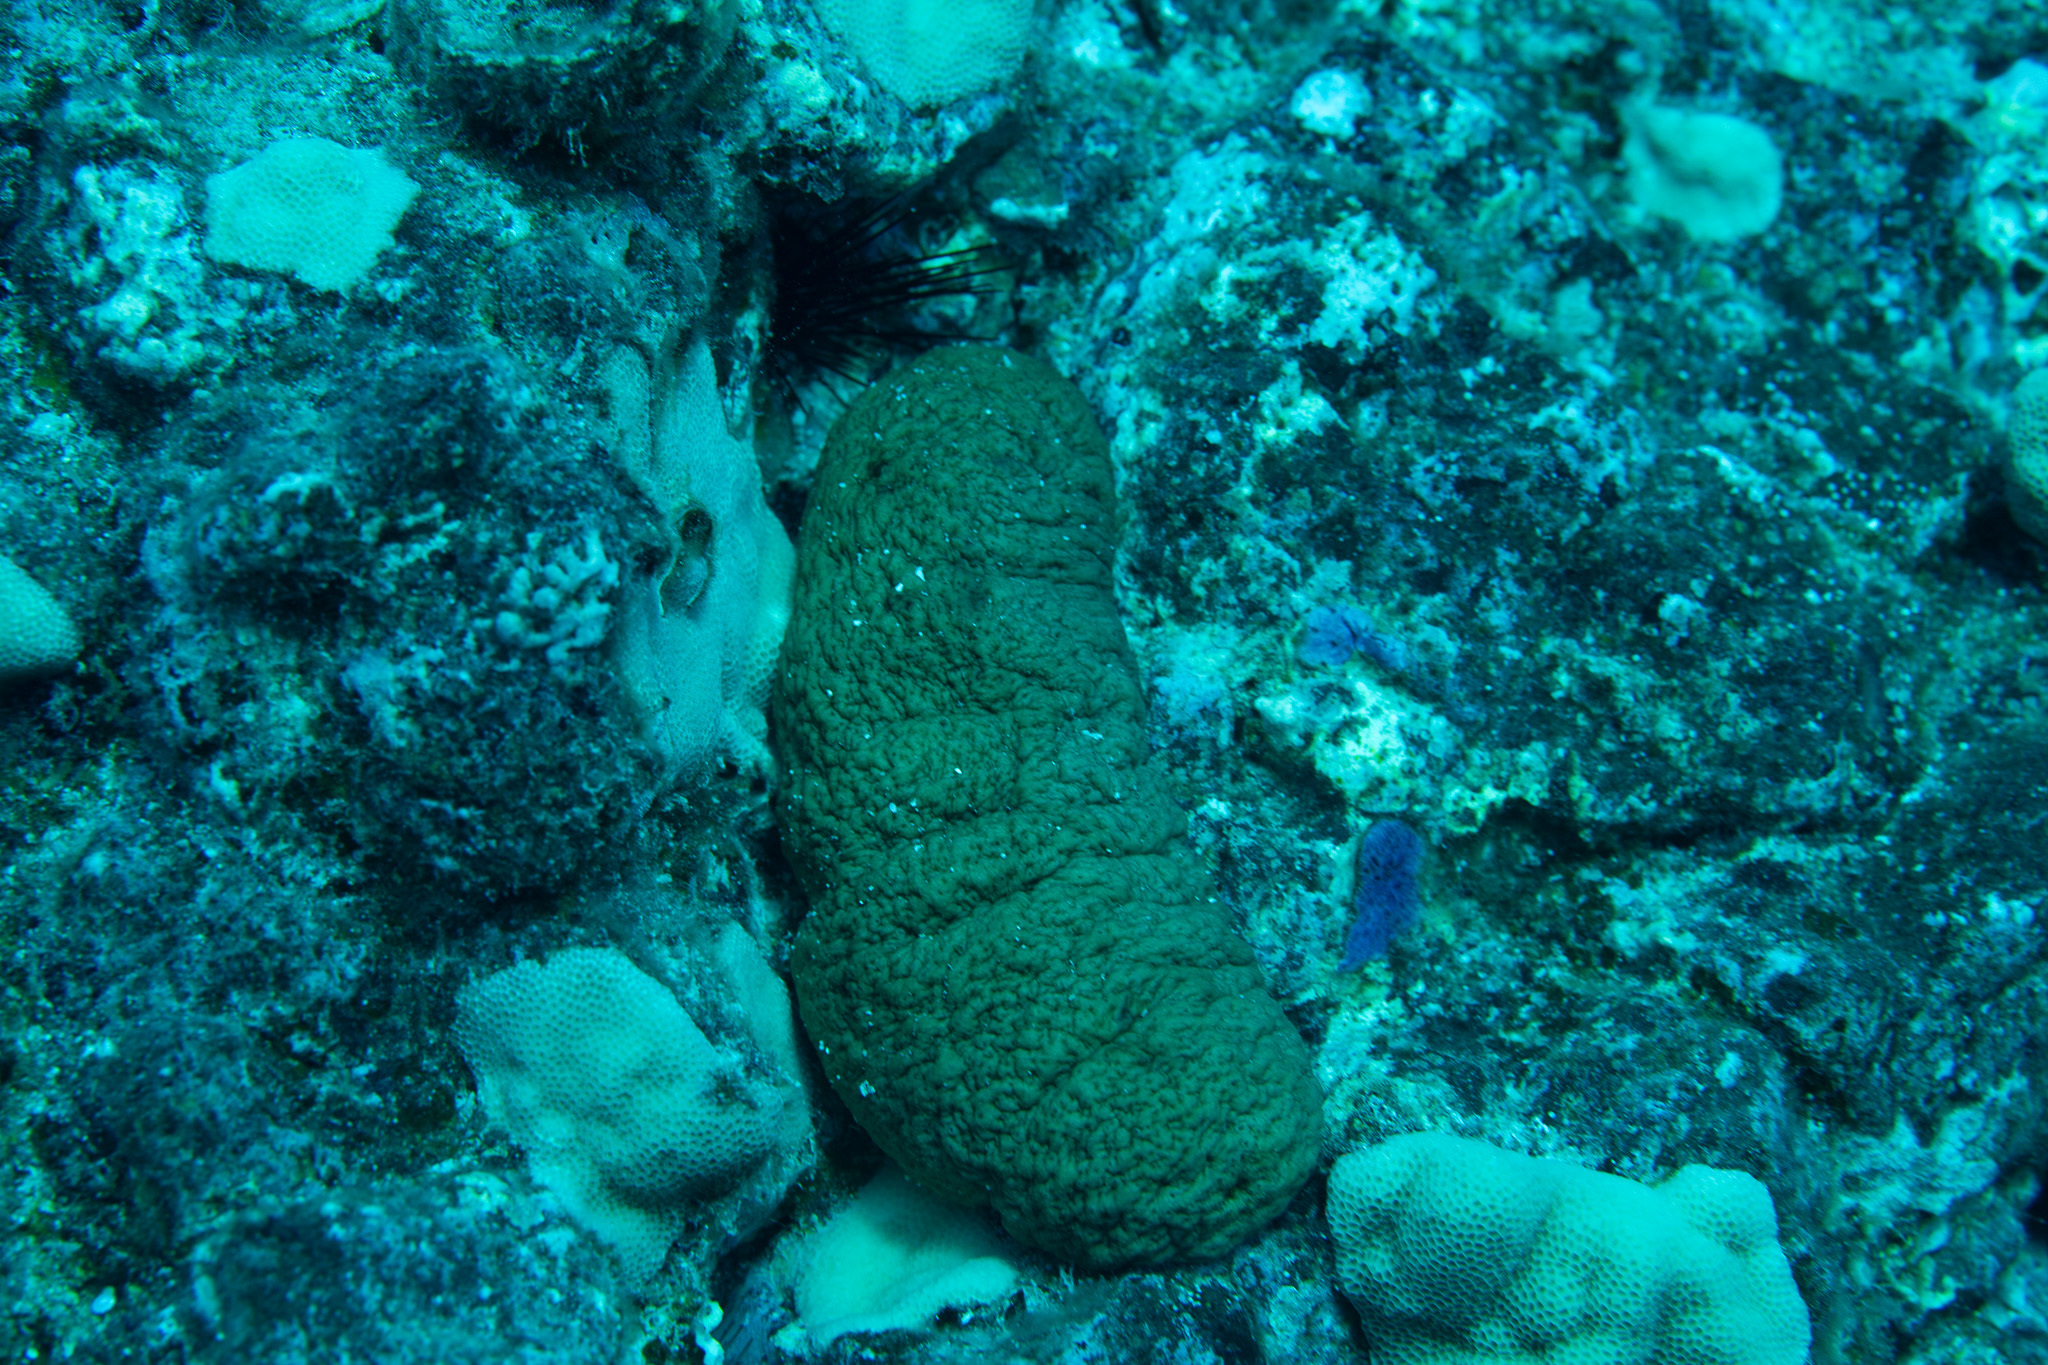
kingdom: Animalia
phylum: Echinodermata
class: Holothuroidea
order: Holothuriida
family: Holothuriidae
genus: Actinopyga
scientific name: Actinopyga obesa
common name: Plump sea cucumber
